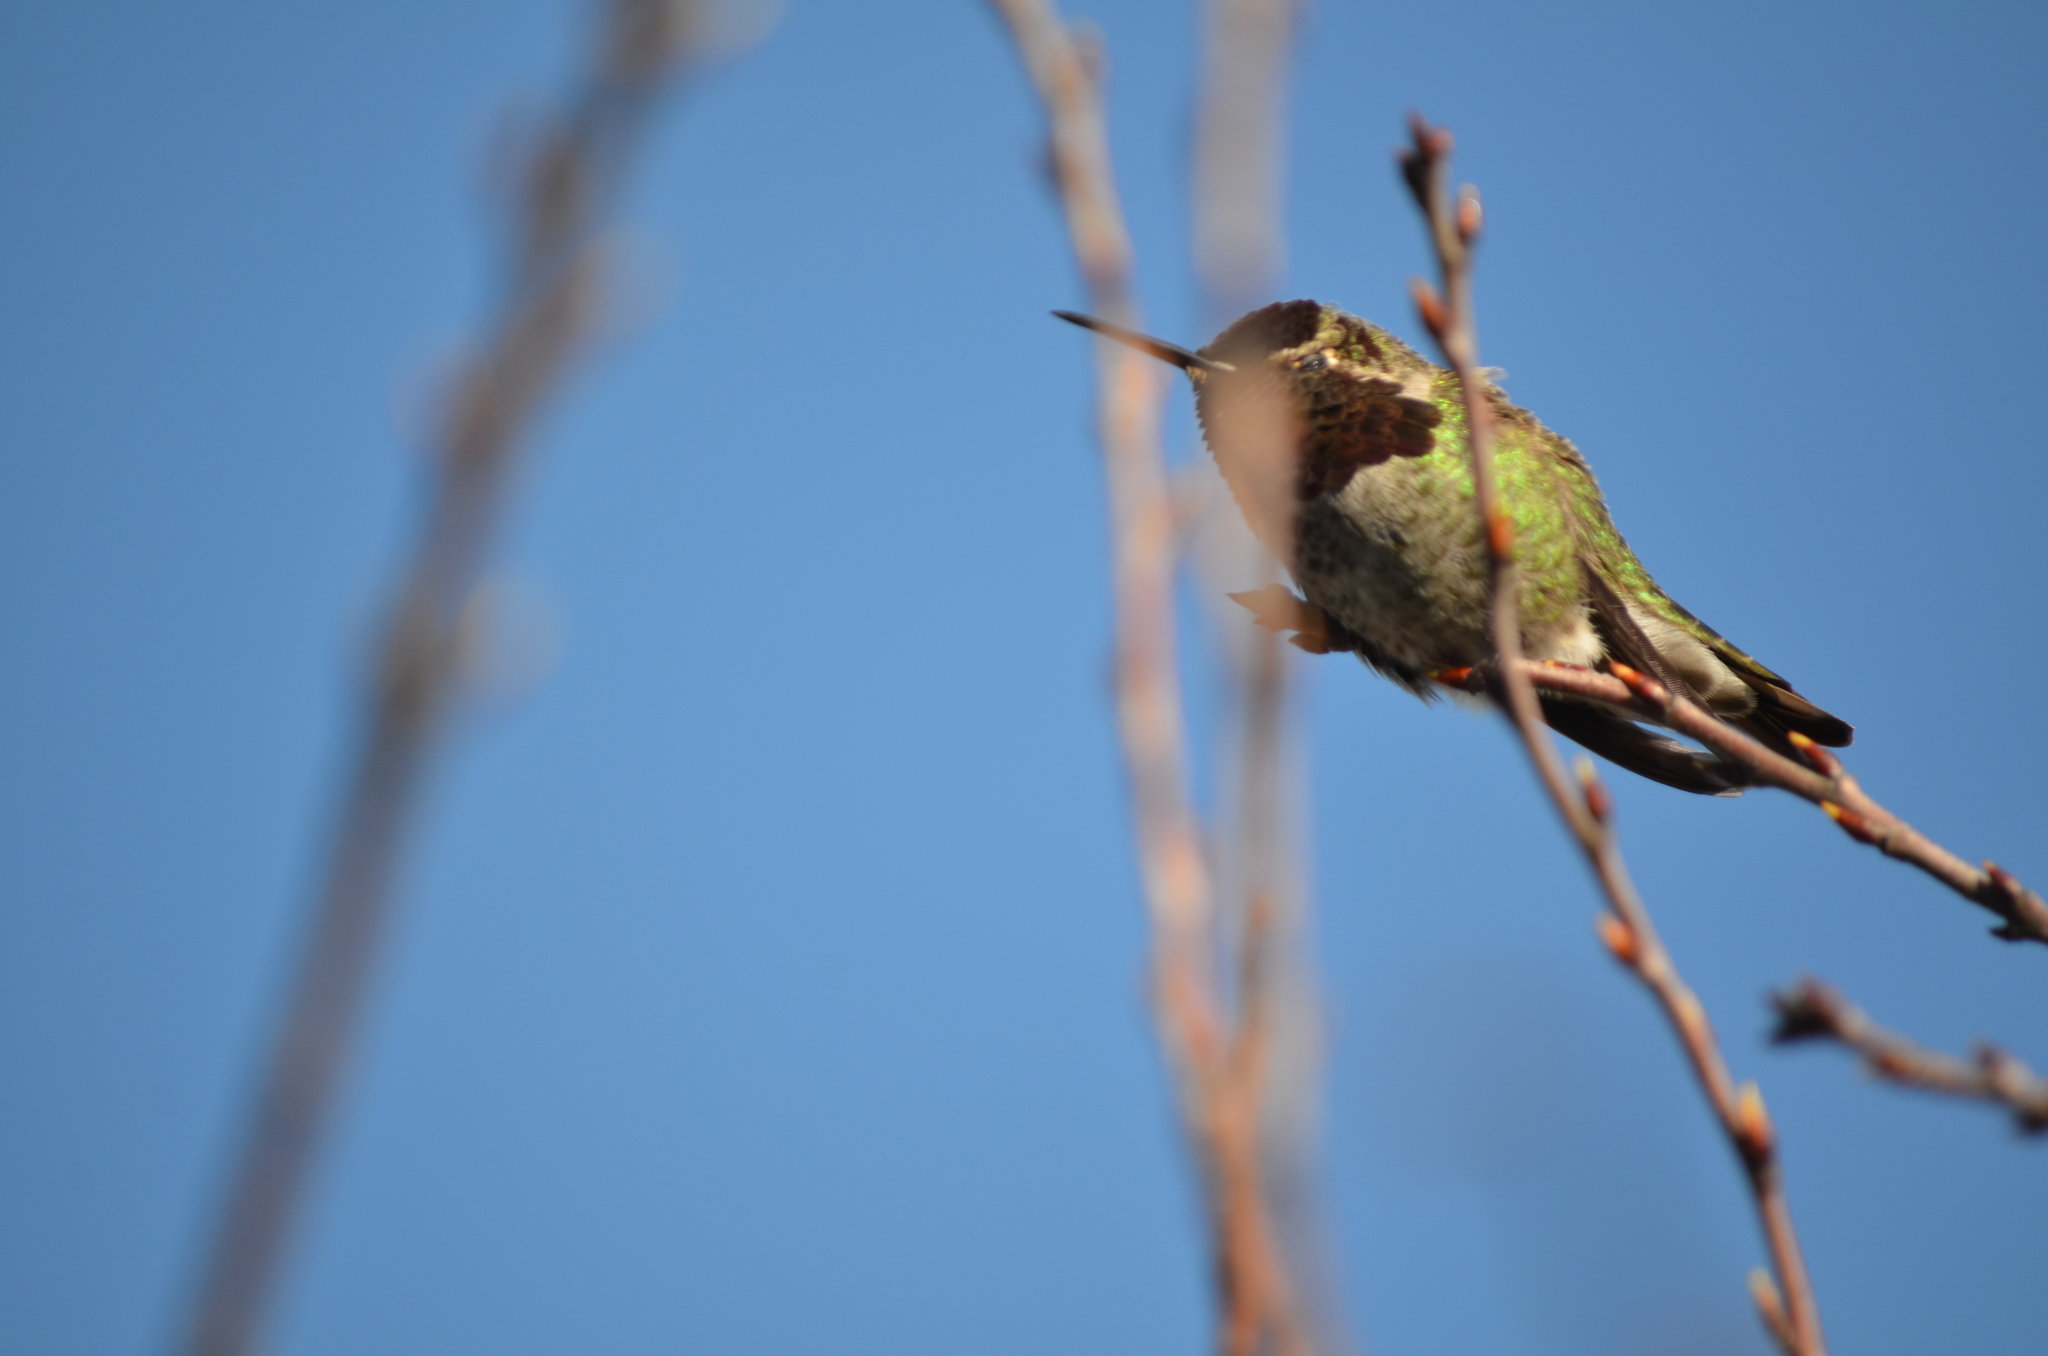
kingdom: Animalia
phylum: Chordata
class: Aves
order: Apodiformes
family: Trochilidae
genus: Calypte
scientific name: Calypte anna
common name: Anna's hummingbird
